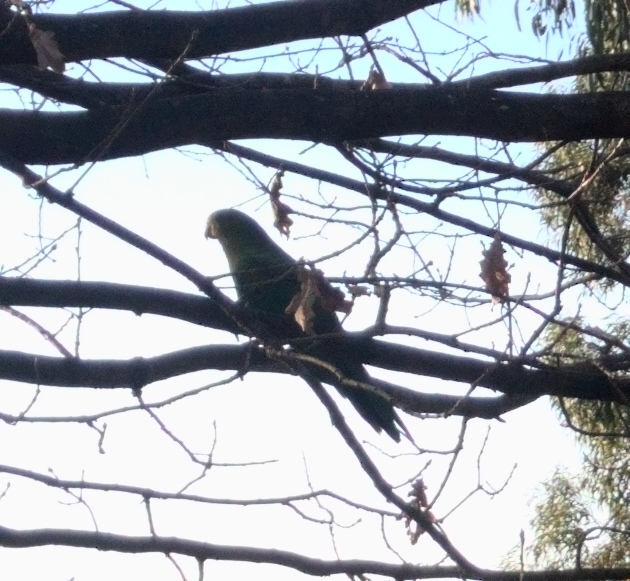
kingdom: Animalia
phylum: Chordata
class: Aves
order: Psittaciformes
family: Psittacidae
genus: Alisterus
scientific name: Alisterus scapularis
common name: Australian king parrot
